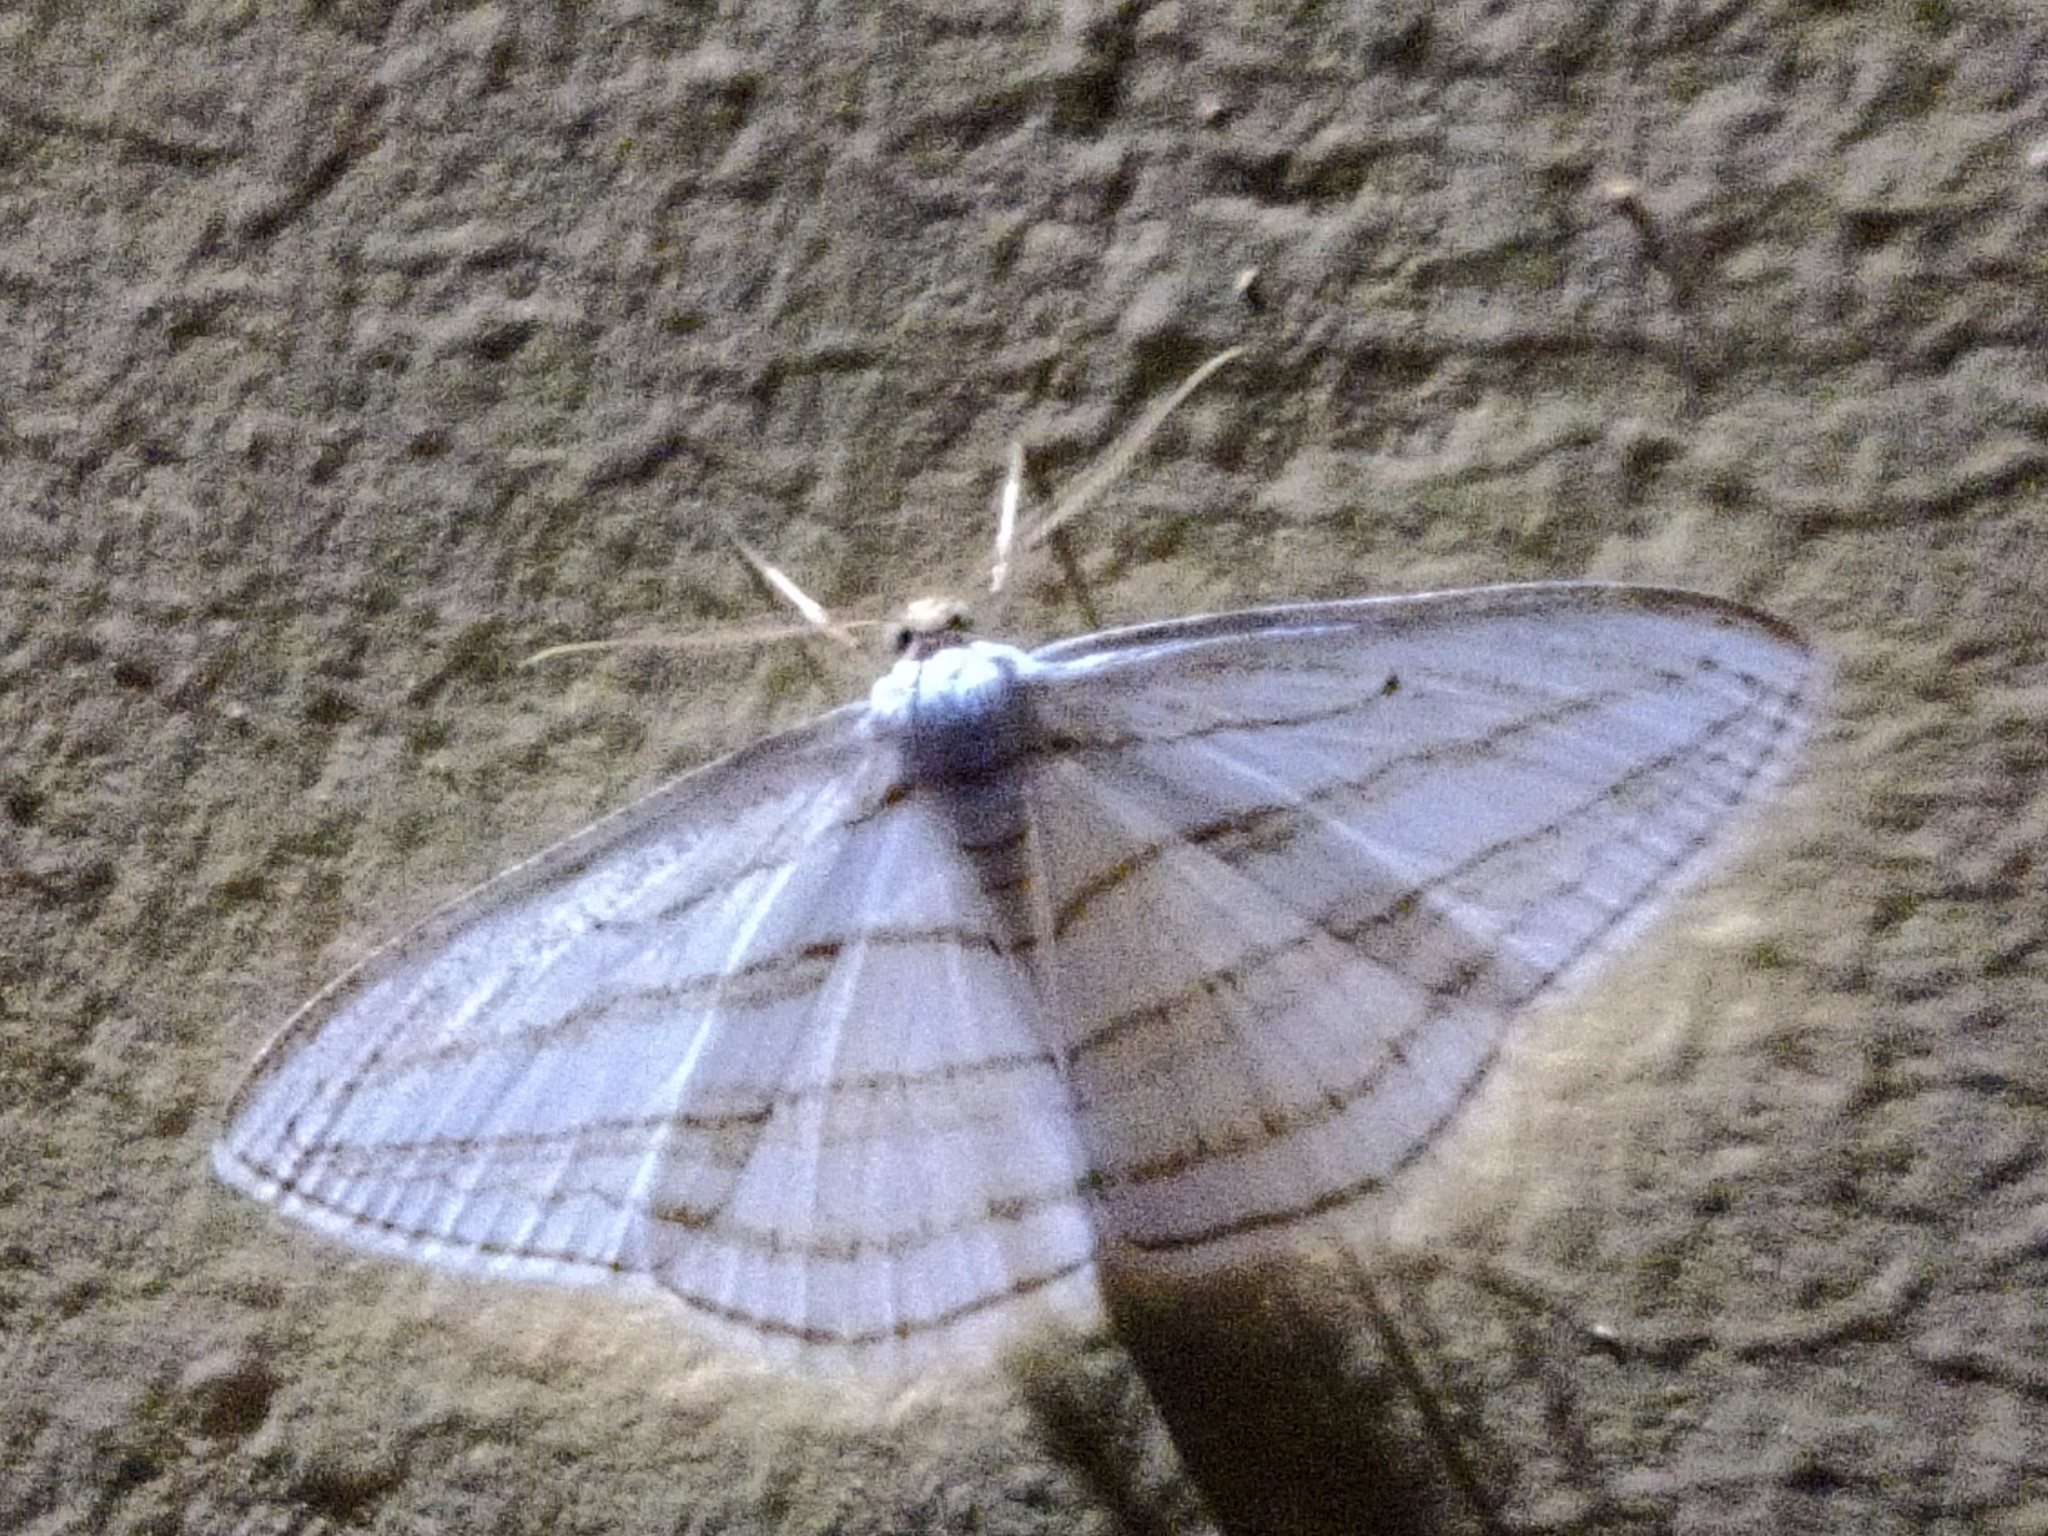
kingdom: Animalia
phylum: Arthropoda
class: Insecta
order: Lepidoptera
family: Geometridae
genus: Orthocabera
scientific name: Orthocabera sericea
